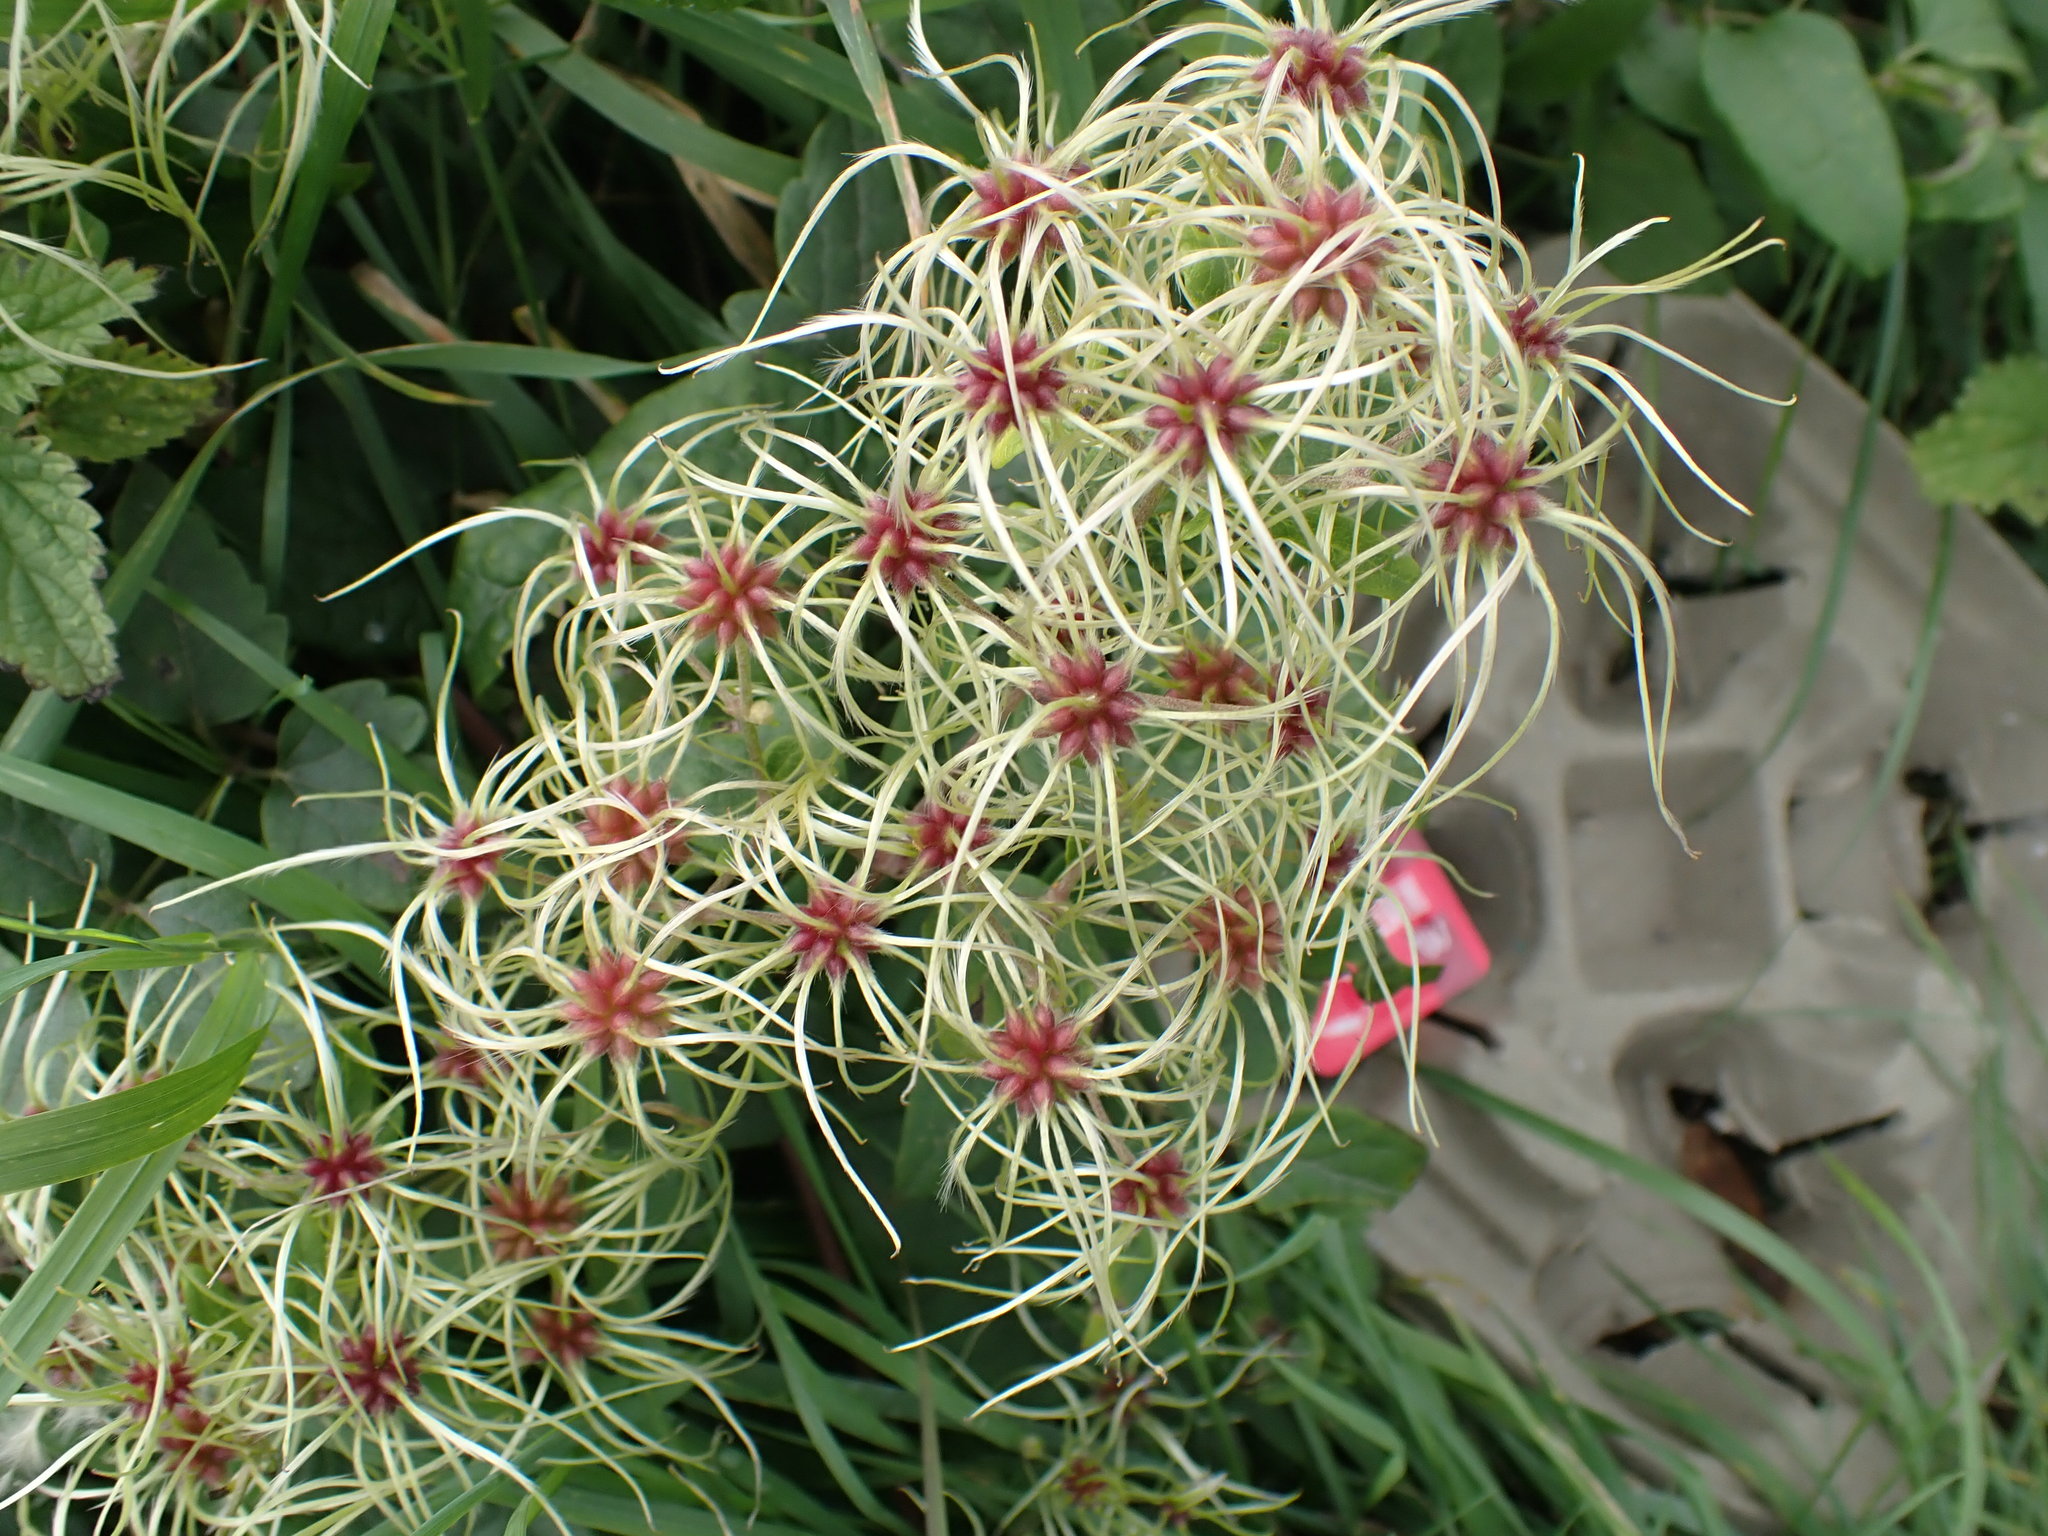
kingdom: Plantae
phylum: Tracheophyta
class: Magnoliopsida
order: Ranunculales
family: Ranunculaceae
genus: Clematis
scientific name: Clematis vitalba
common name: Evergreen clematis
